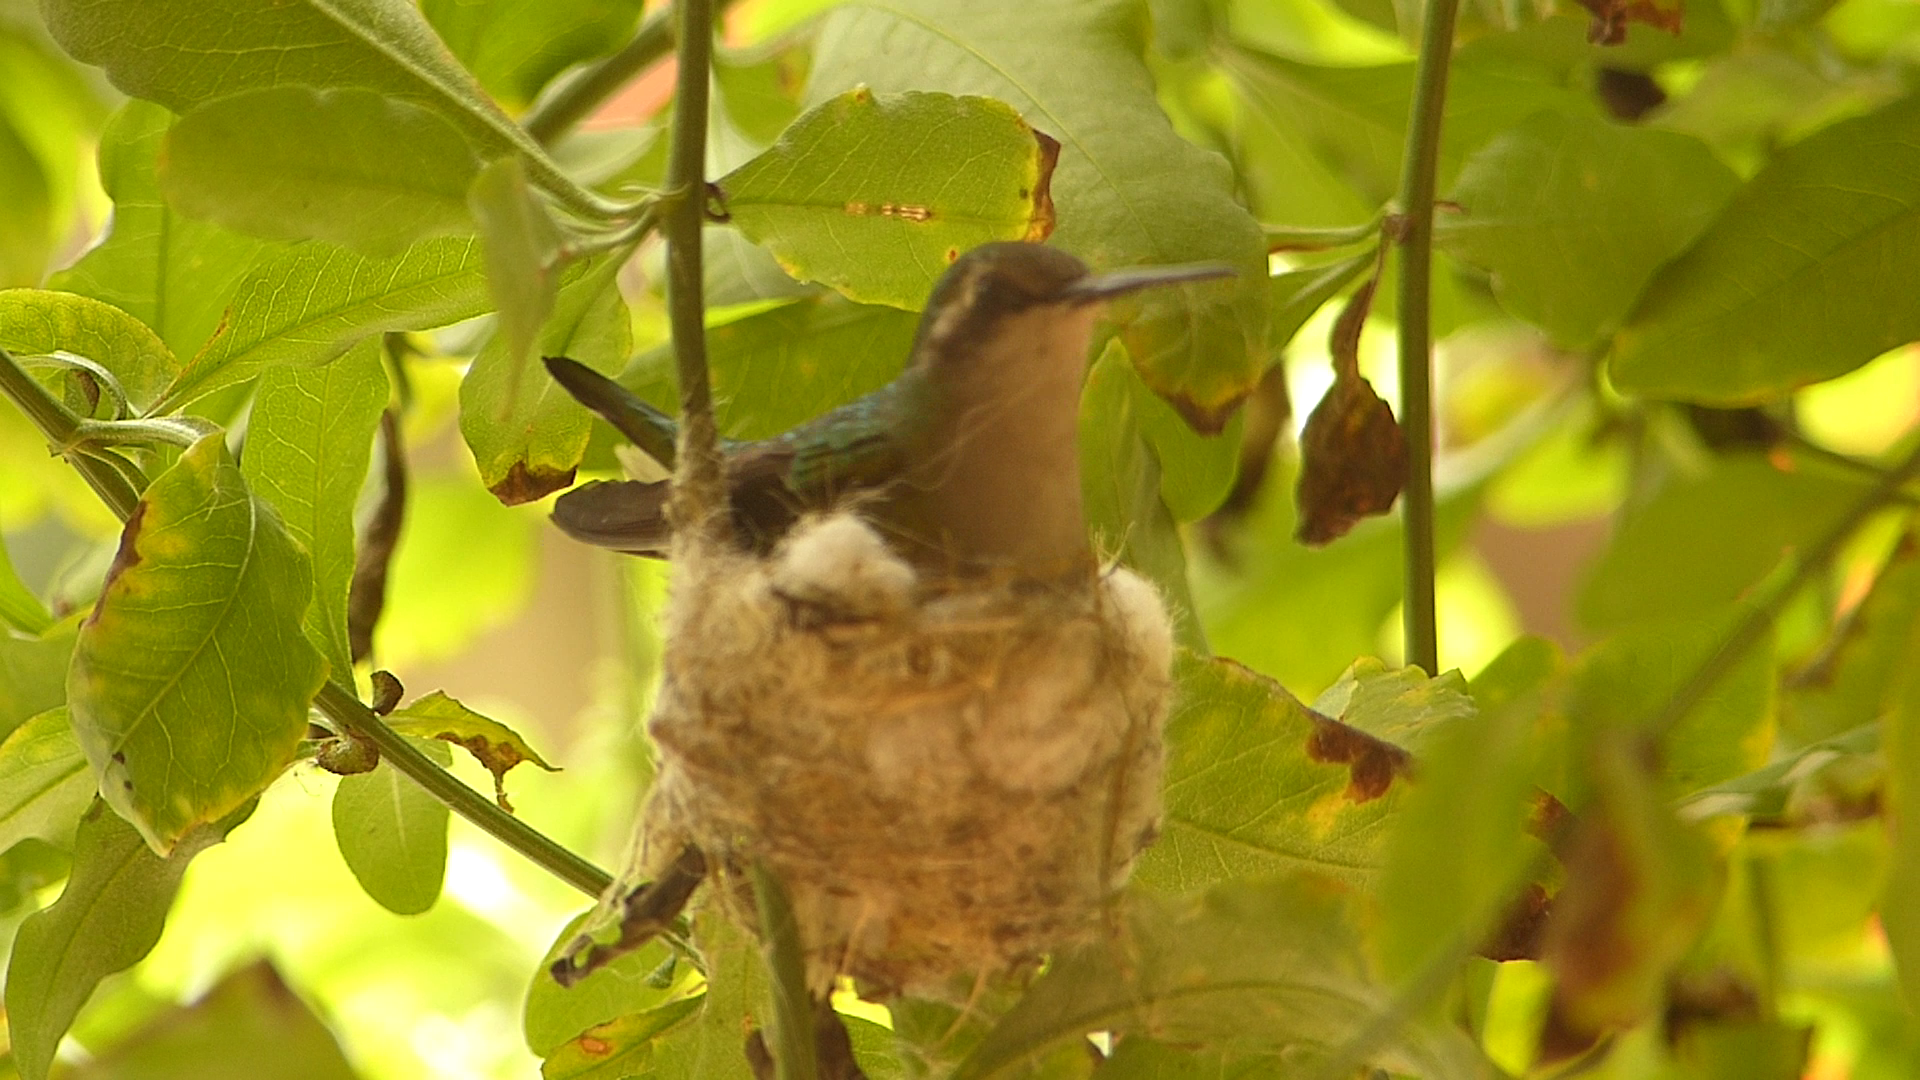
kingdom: Animalia
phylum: Chordata
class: Aves
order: Apodiformes
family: Trochilidae
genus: Chlorostilbon
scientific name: Chlorostilbon poortmani
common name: Short-tailed emerald
